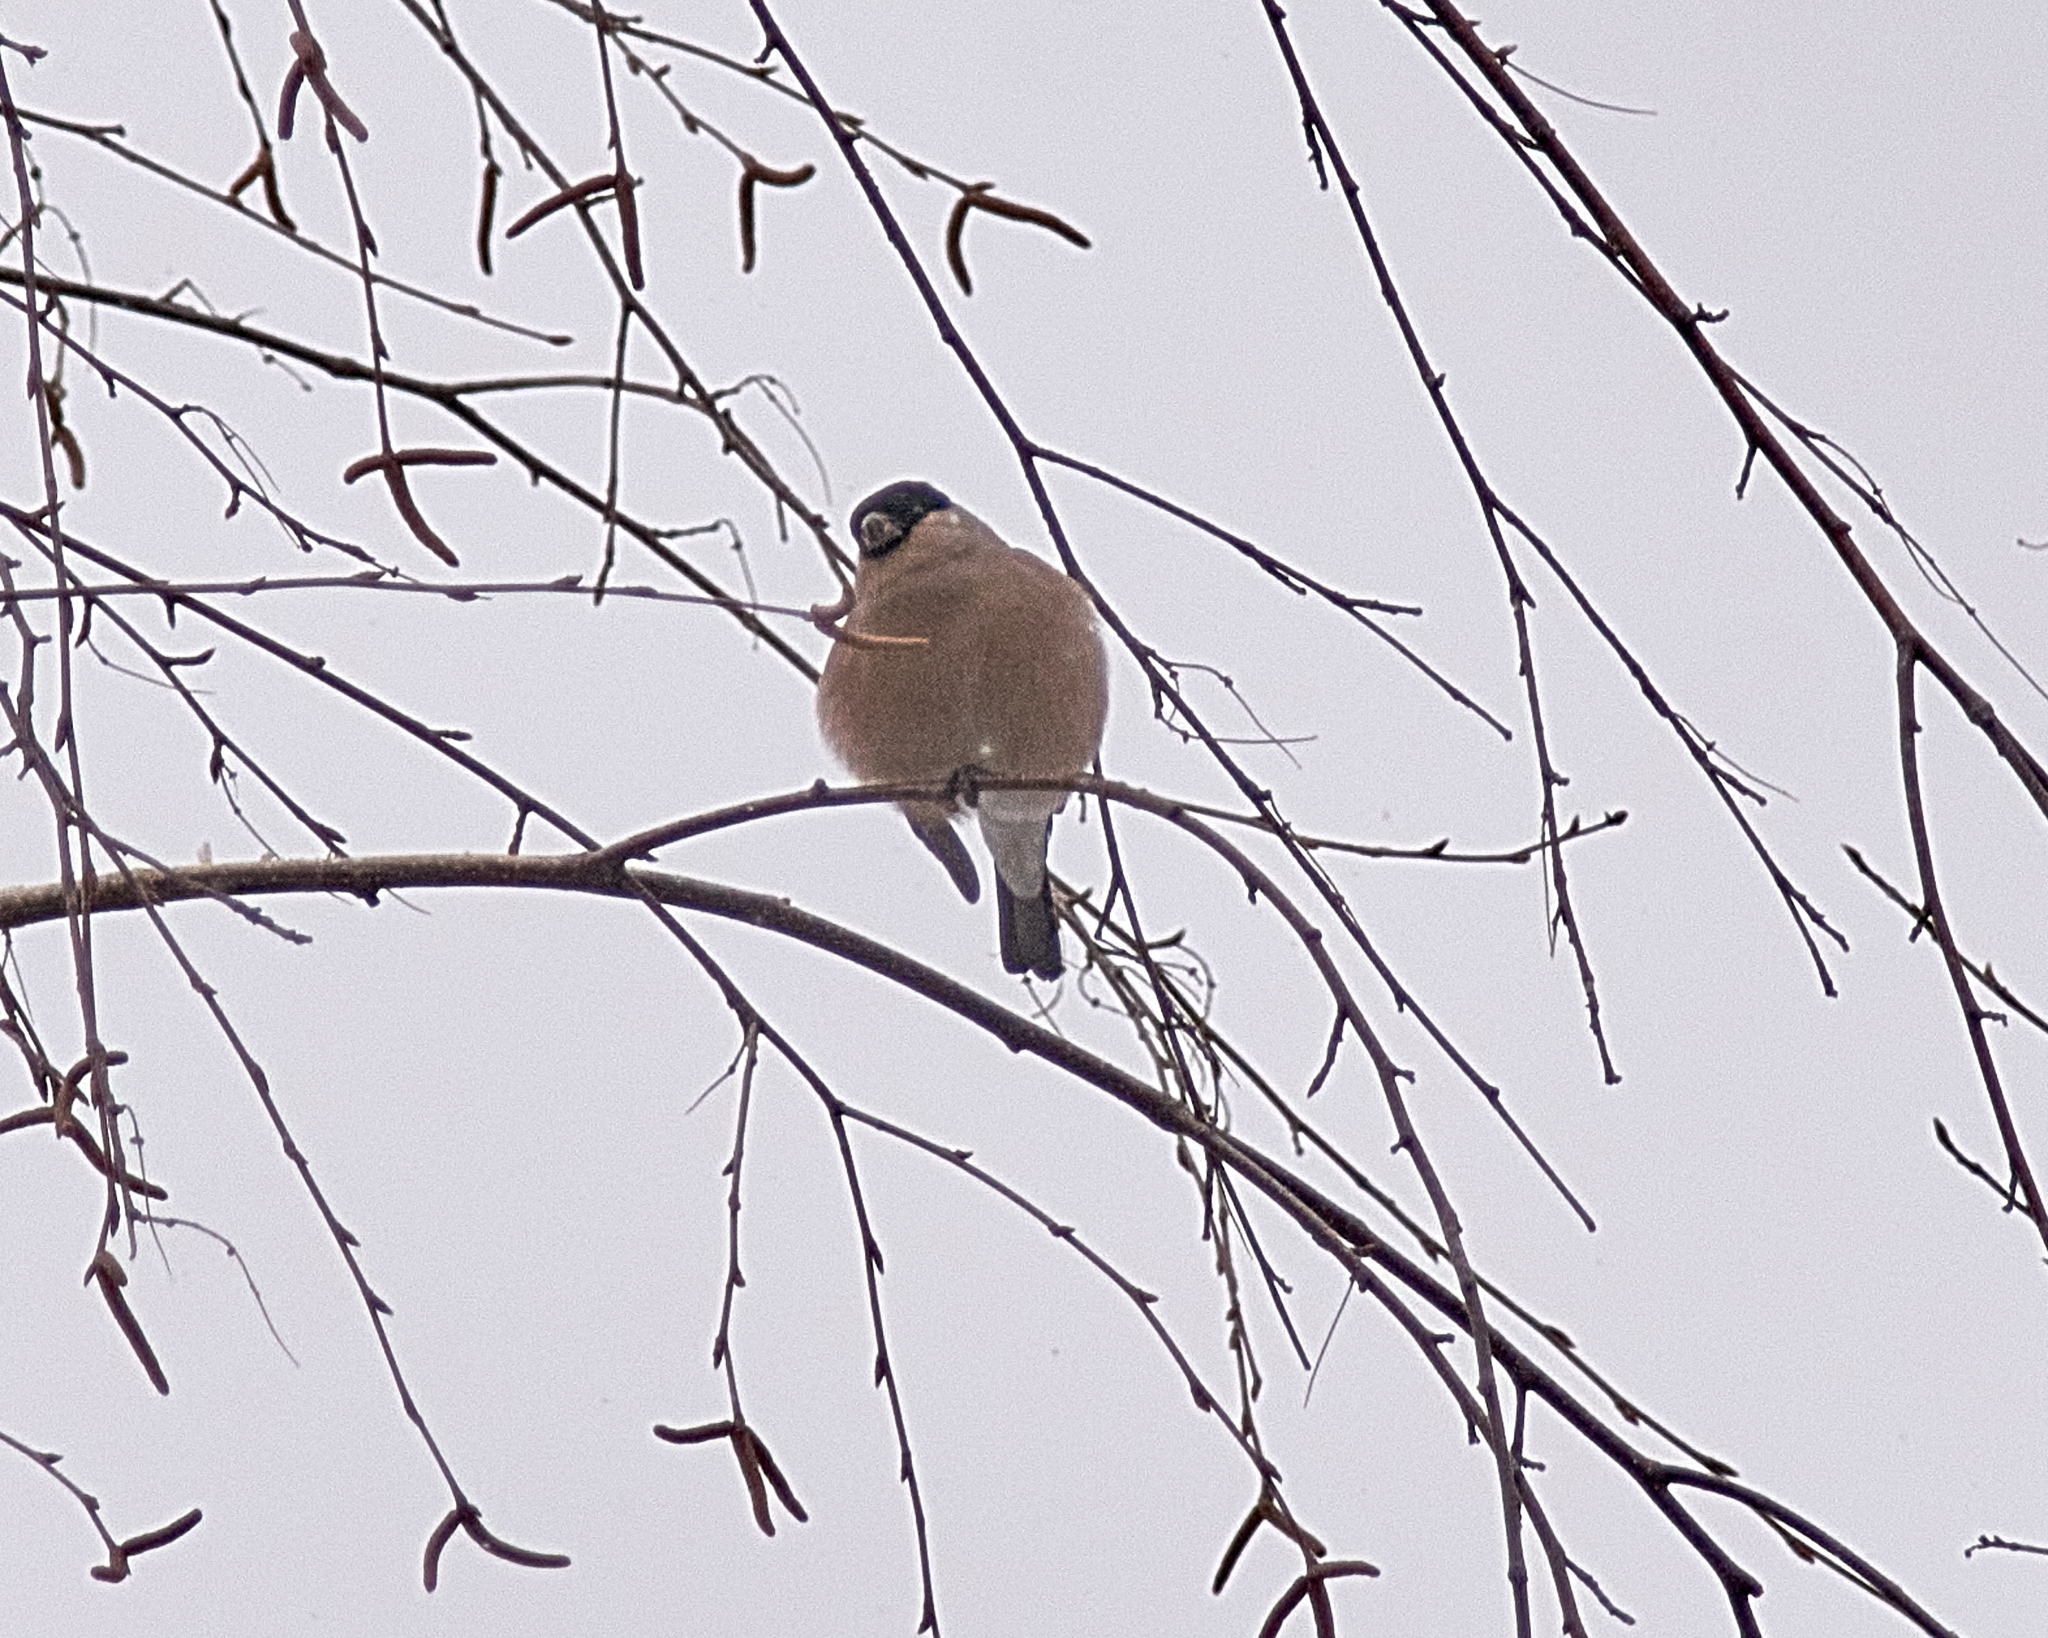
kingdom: Animalia
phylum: Chordata
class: Aves
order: Passeriformes
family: Fringillidae
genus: Pyrrhula
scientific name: Pyrrhula pyrrhula
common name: Eurasian bullfinch
